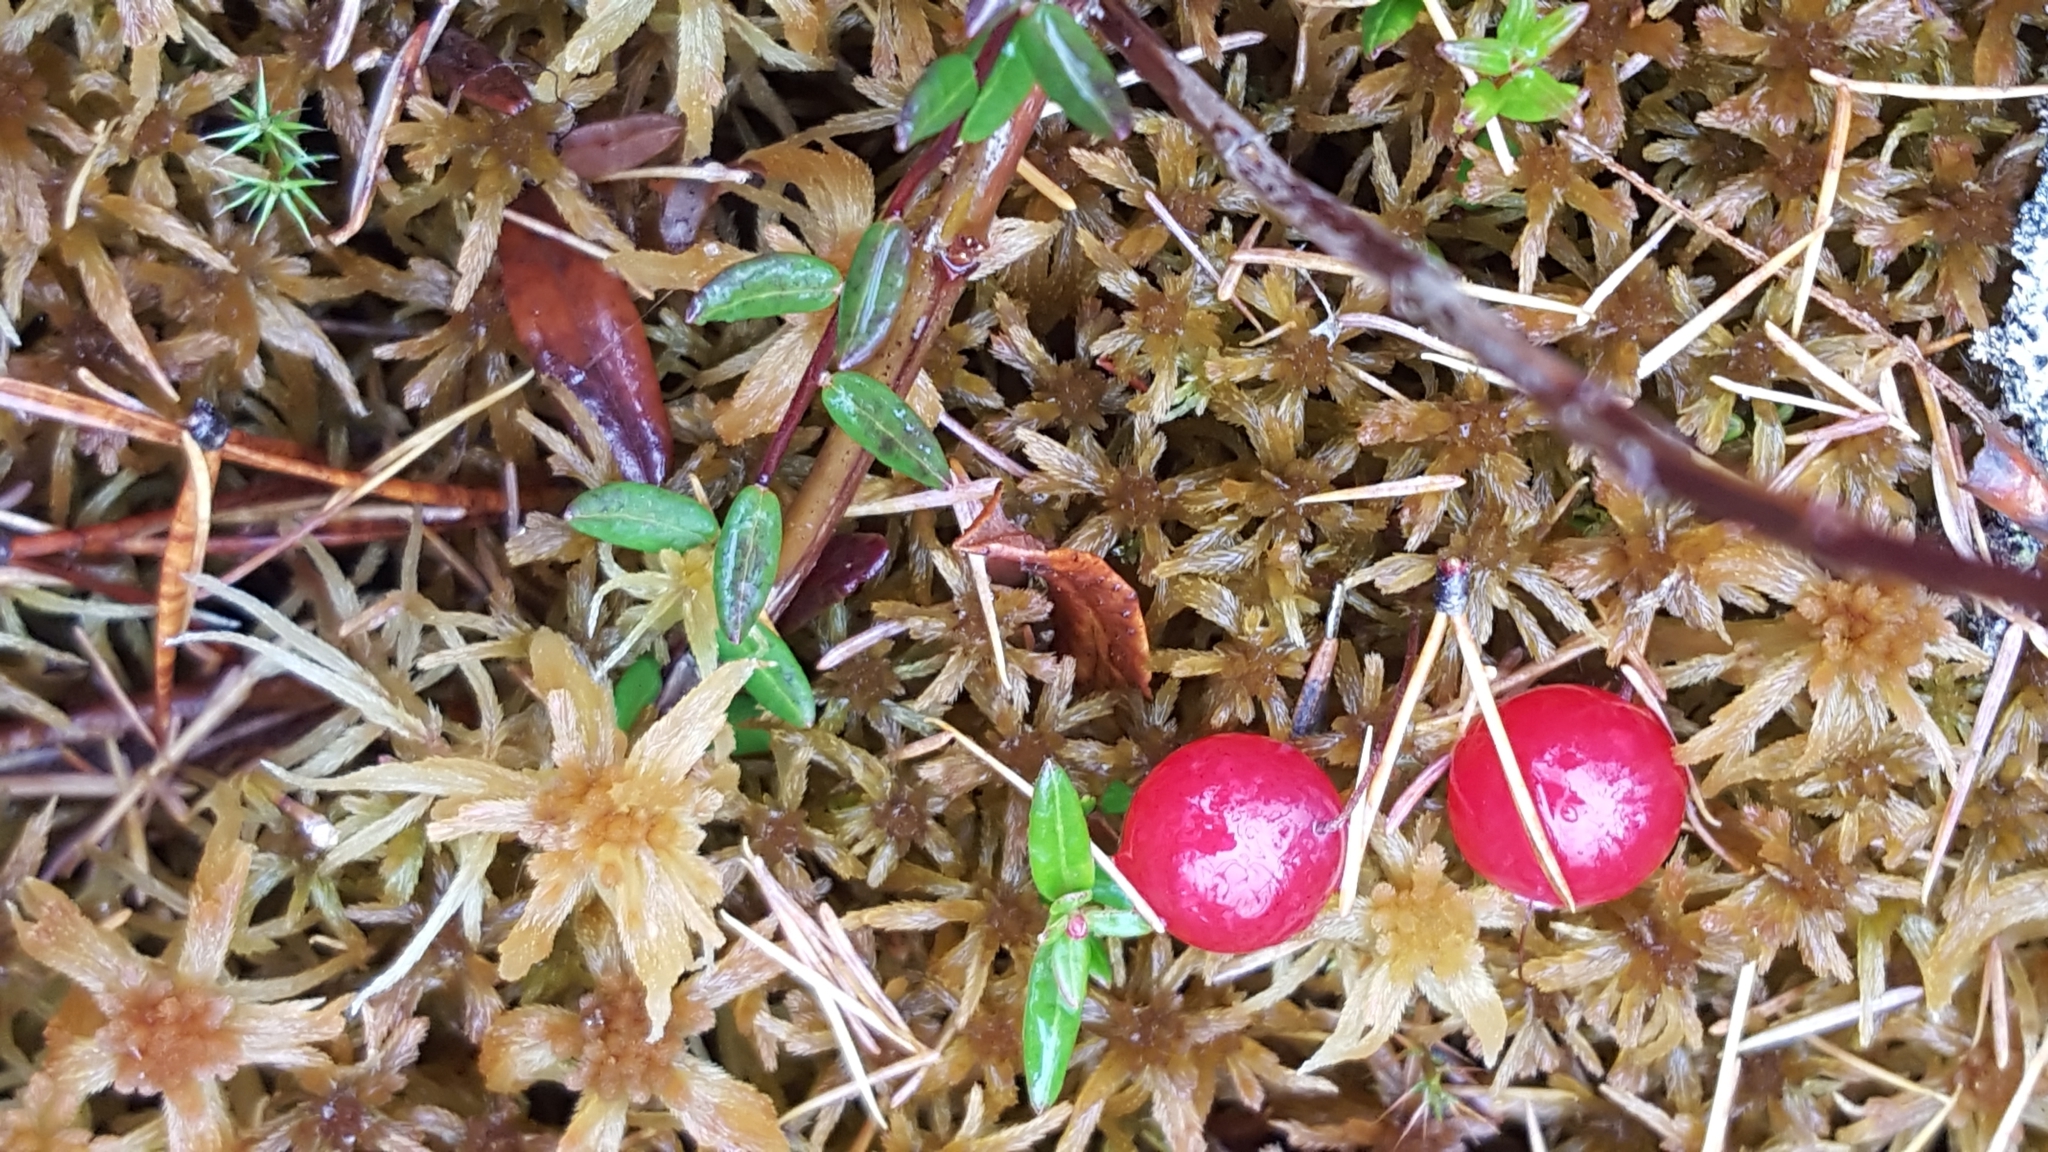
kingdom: Plantae
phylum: Tracheophyta
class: Magnoliopsida
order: Ericales
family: Ericaceae
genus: Vaccinium
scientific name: Vaccinium oxycoccos
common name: Cranberry
